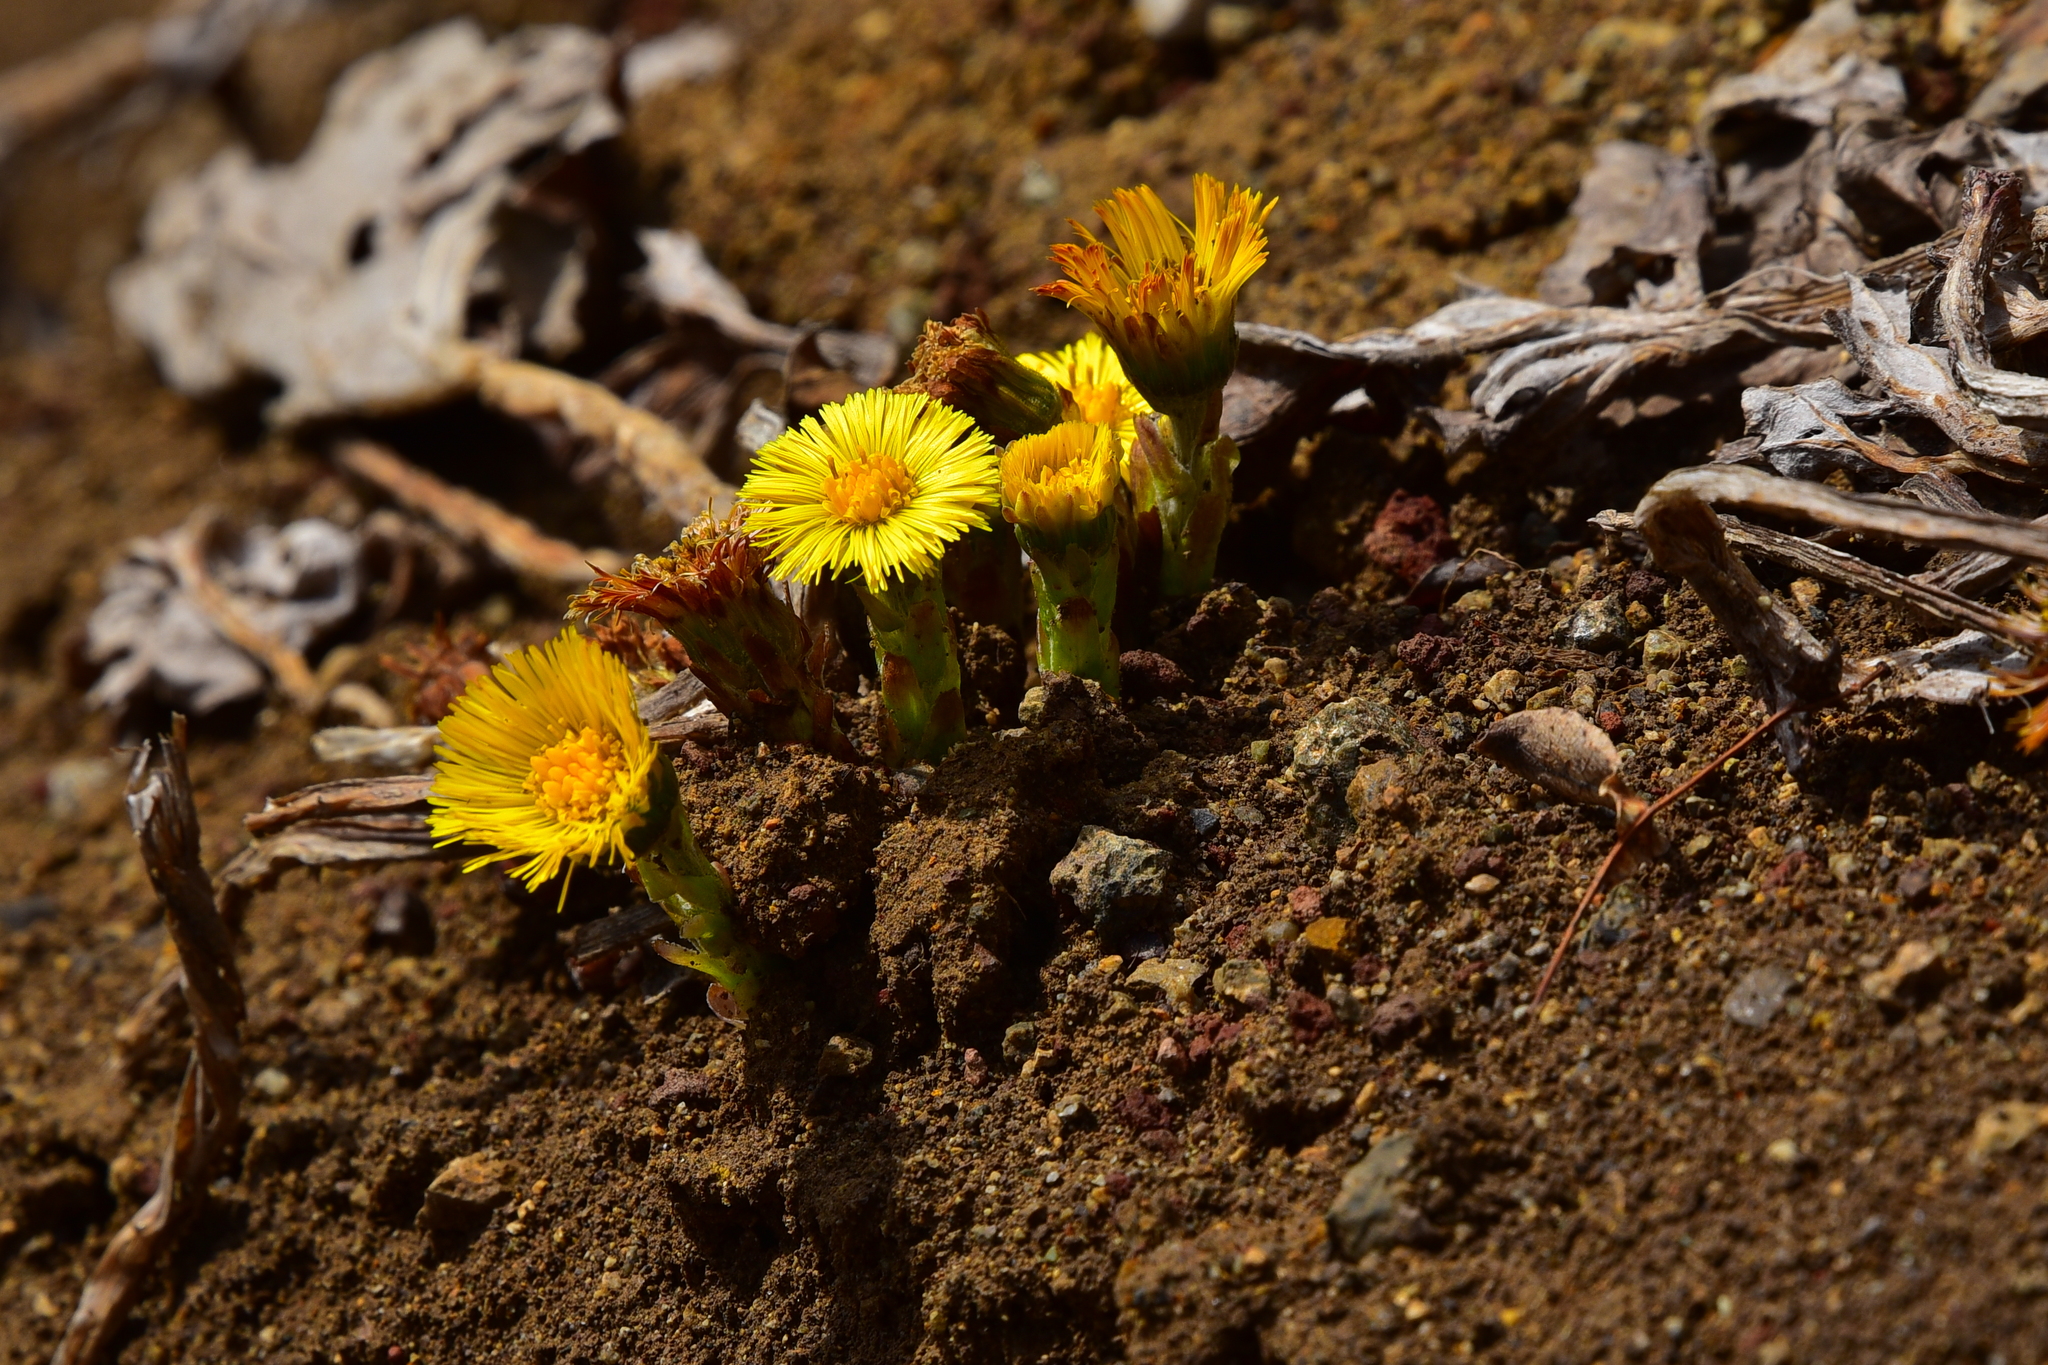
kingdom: Plantae
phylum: Tracheophyta
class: Magnoliopsida
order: Asterales
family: Asteraceae
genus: Tussilago
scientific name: Tussilago farfara
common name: Coltsfoot
